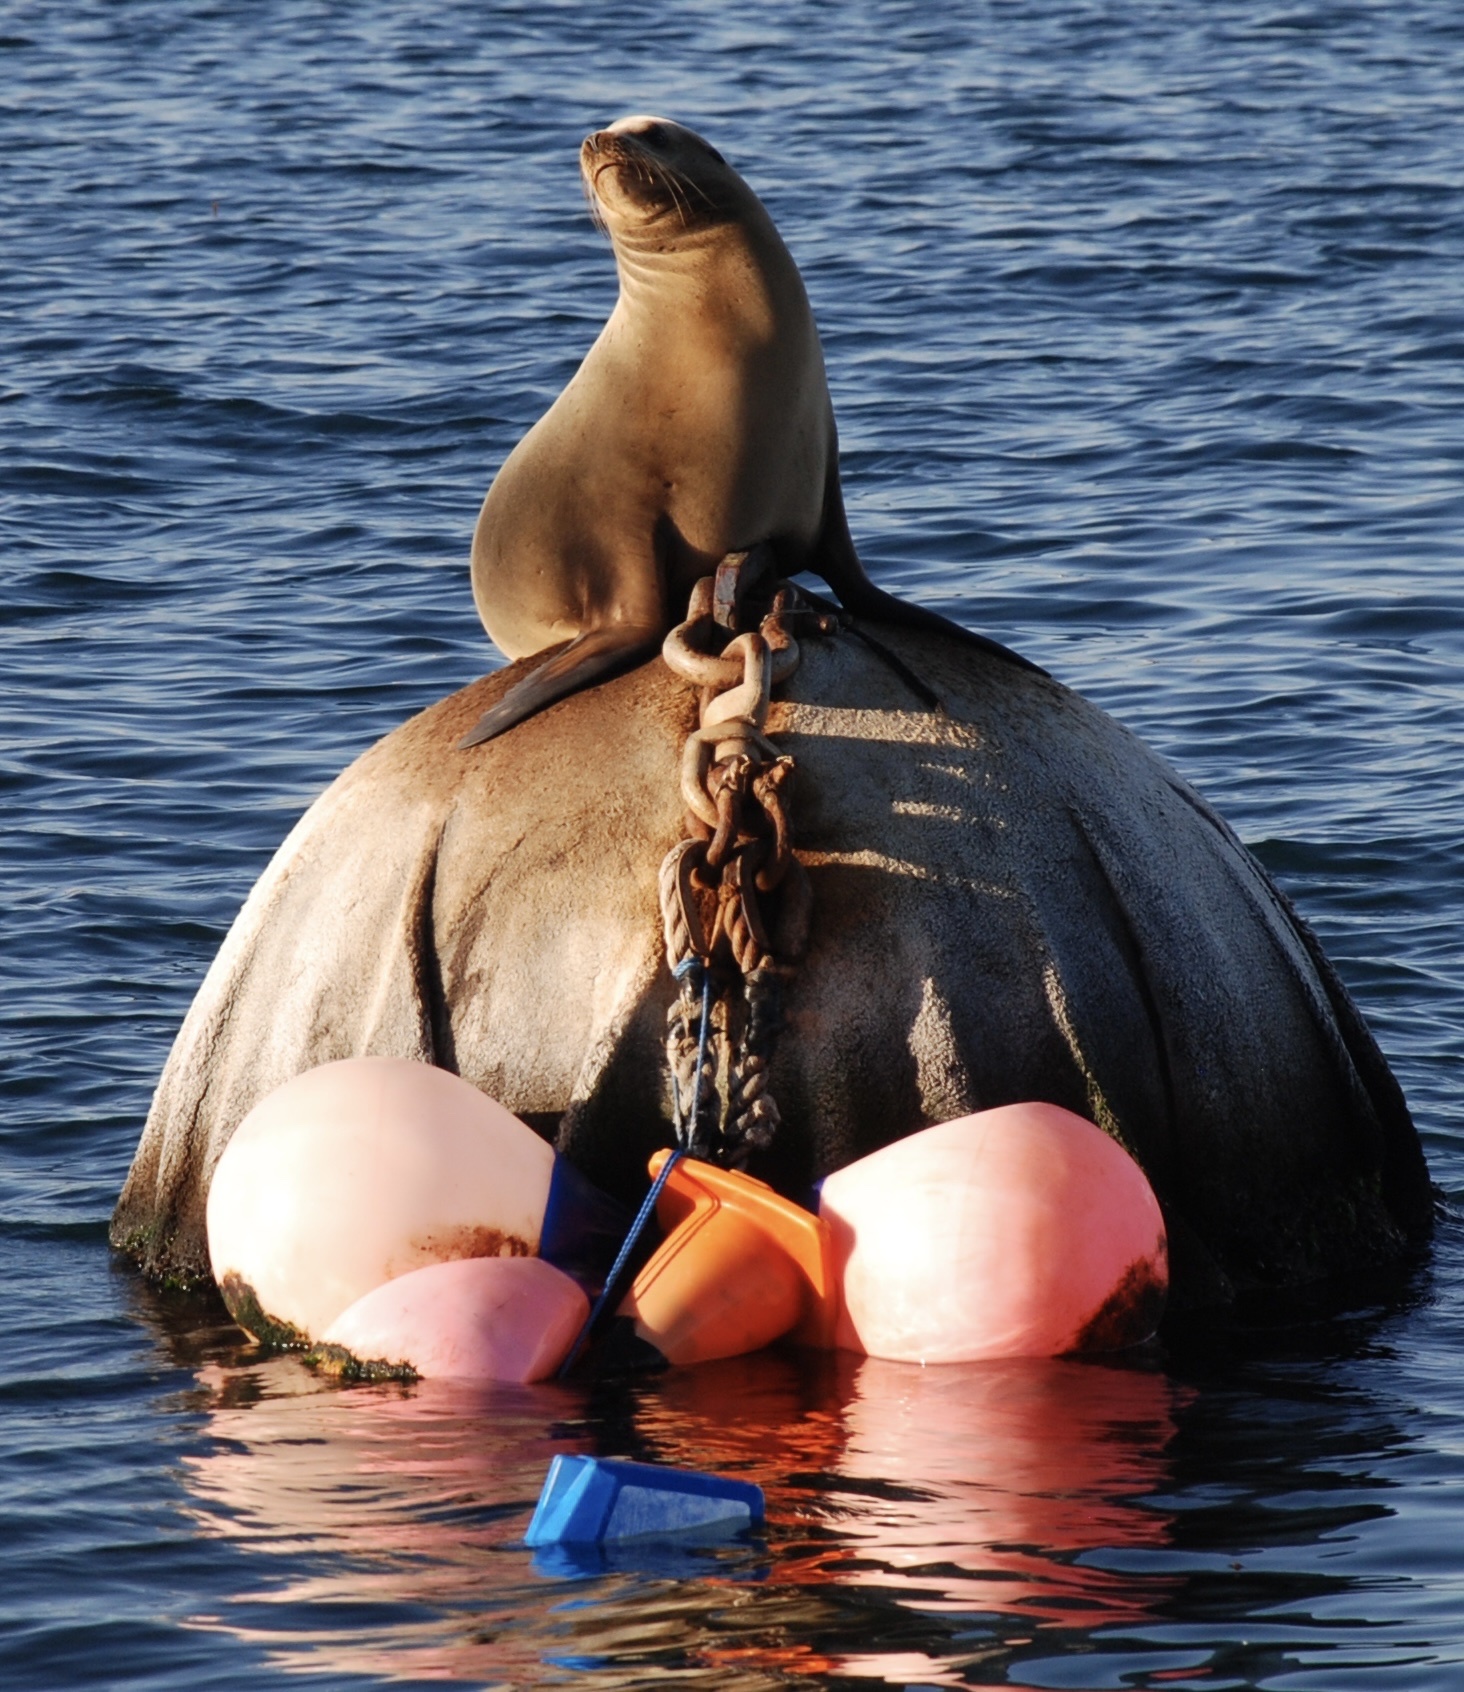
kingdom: Animalia
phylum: Chordata
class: Mammalia
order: Carnivora
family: Otariidae
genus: Zalophus
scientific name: Zalophus californianus
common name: California sea lion
